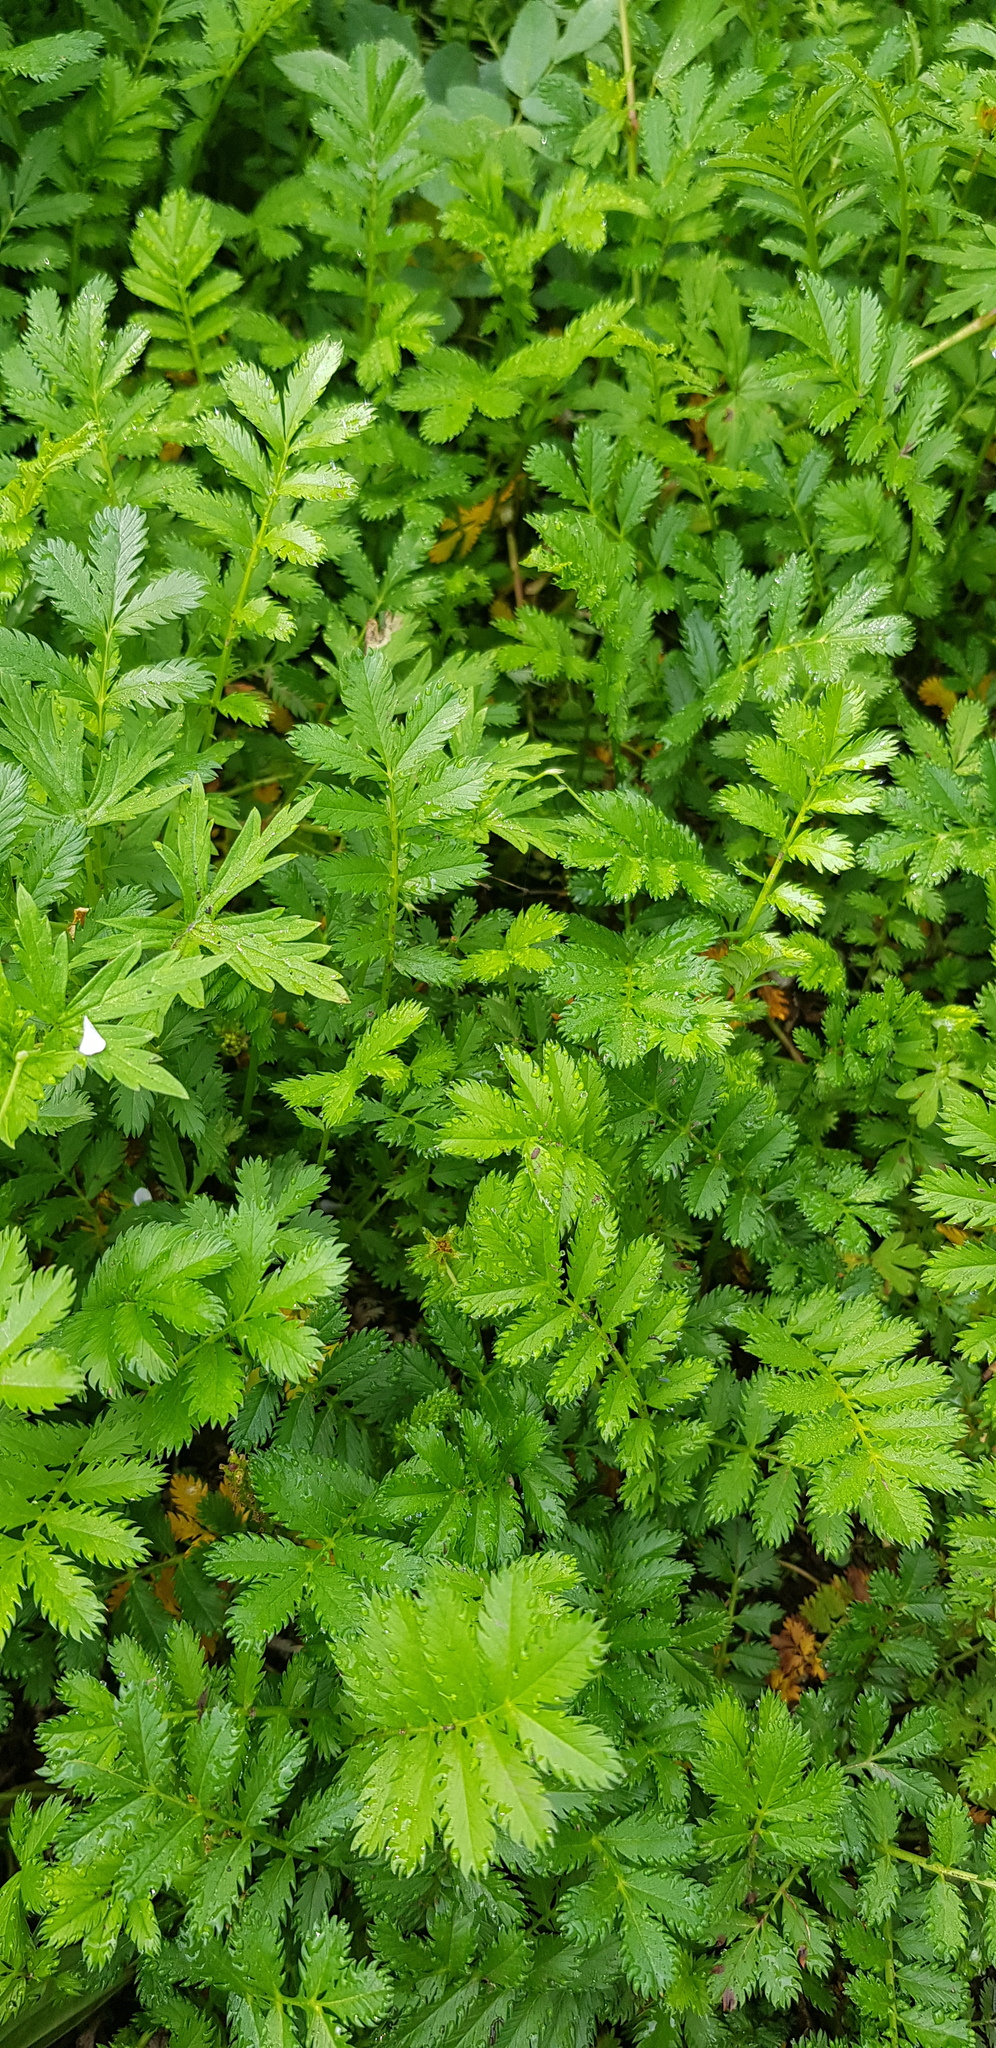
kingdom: Plantae
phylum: Tracheophyta
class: Magnoliopsida
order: Rosales
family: Rosaceae
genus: Argentina
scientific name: Argentina anserina
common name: Common silverweed
